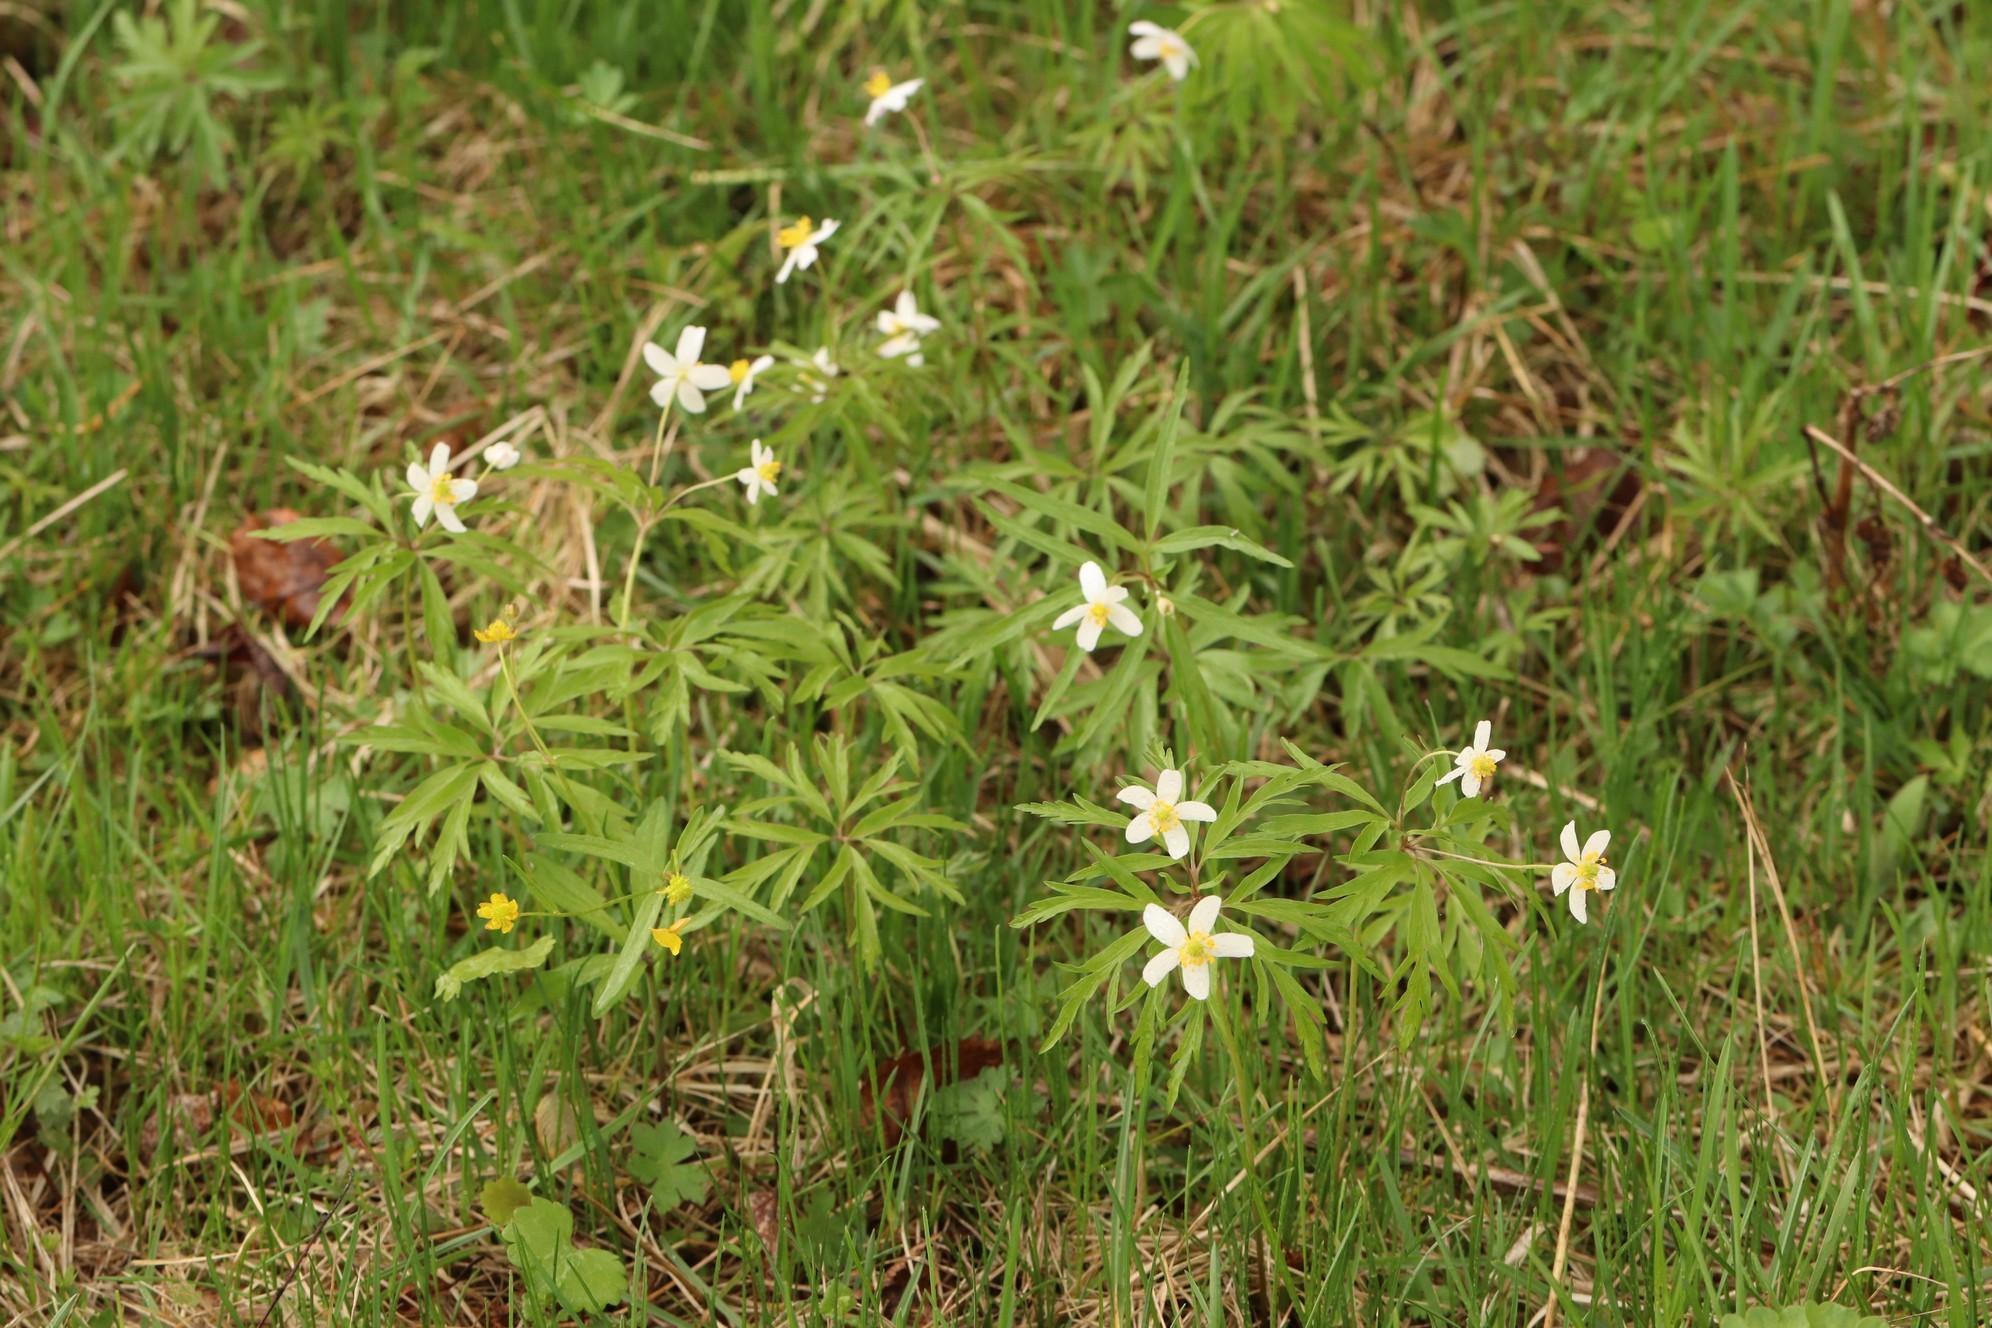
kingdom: Plantae
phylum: Tracheophyta
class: Magnoliopsida
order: Ranunculales
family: Ranunculaceae
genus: Anemone
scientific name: Anemone caerulea
